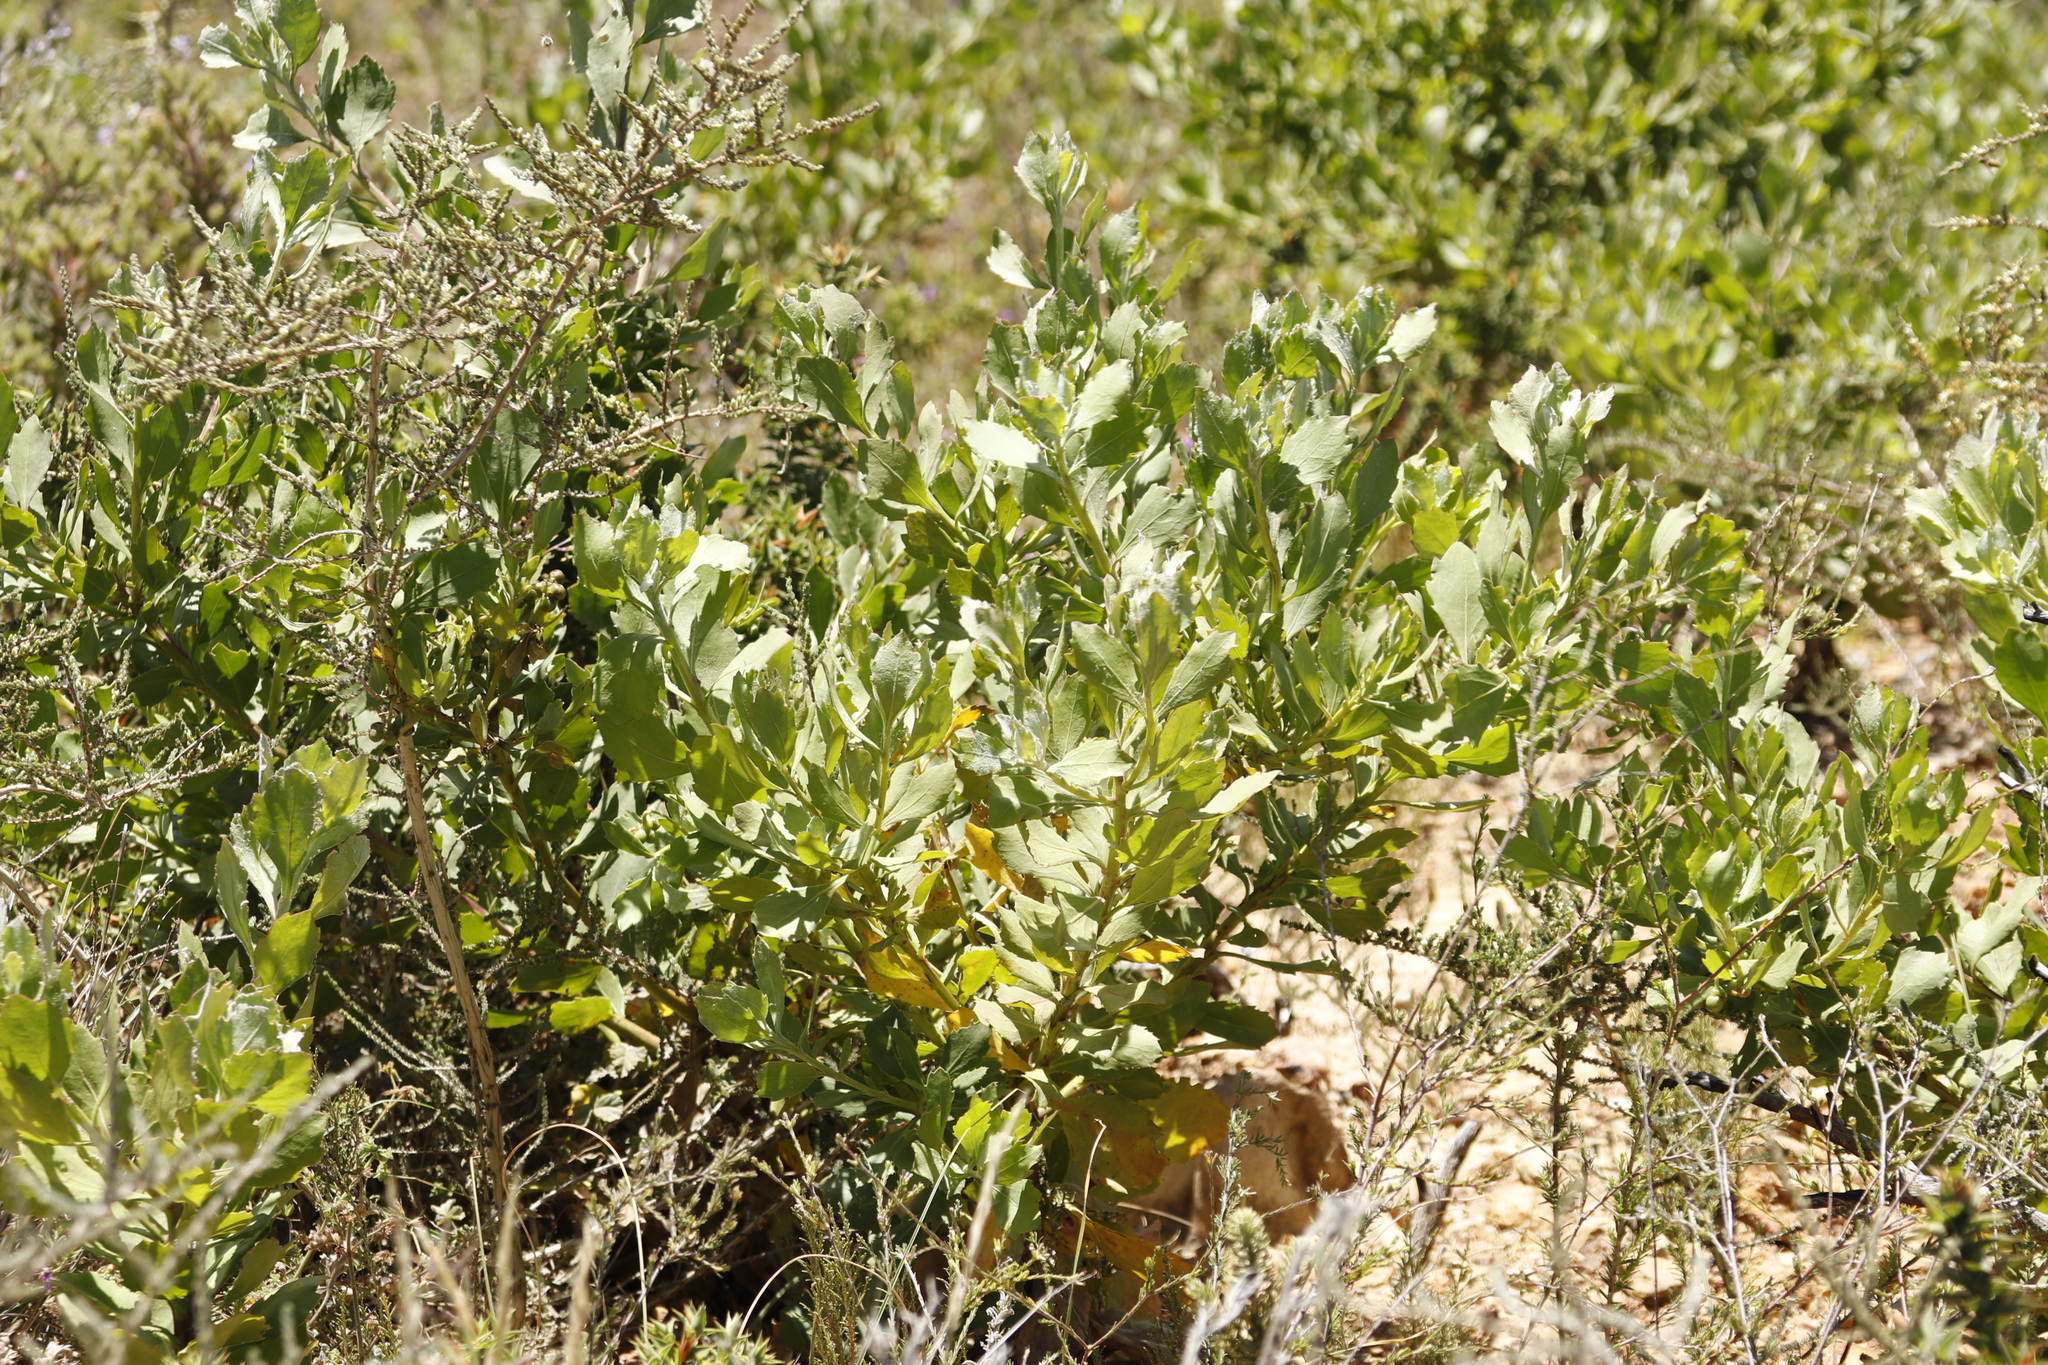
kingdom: Plantae
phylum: Tracheophyta
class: Magnoliopsida
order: Asterales
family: Asteraceae
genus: Osteospermum
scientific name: Osteospermum moniliferum
